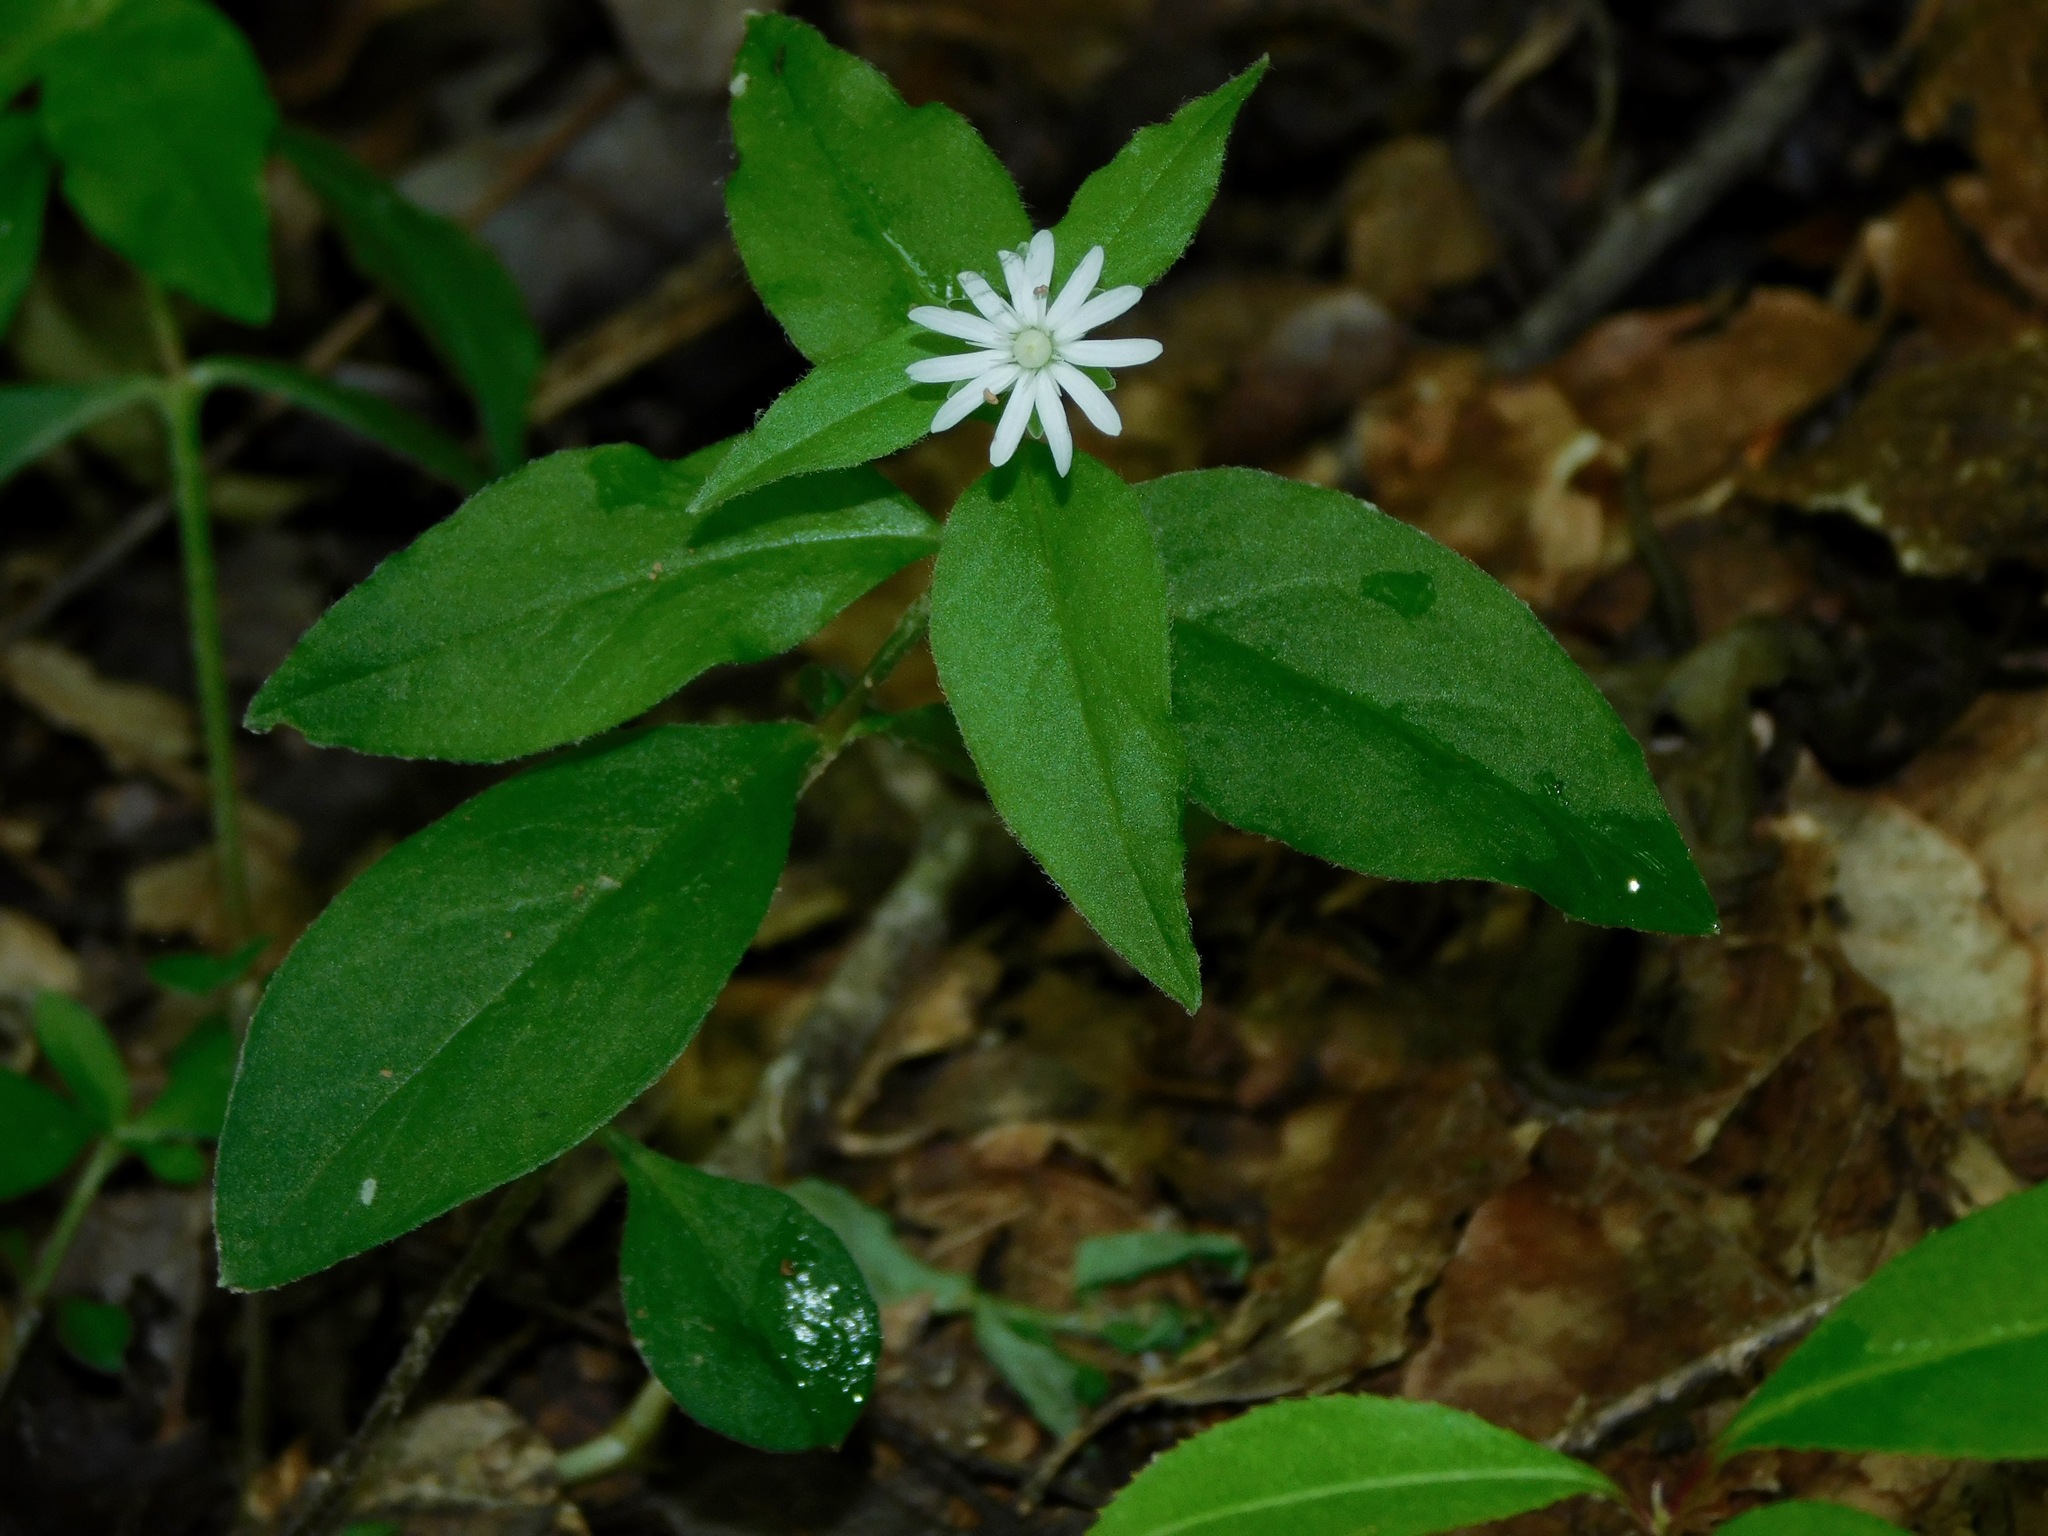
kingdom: Plantae
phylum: Tracheophyta
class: Magnoliopsida
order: Caryophyllales
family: Caryophyllaceae
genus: Stellaria
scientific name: Stellaria pubera
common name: Star chickweed
